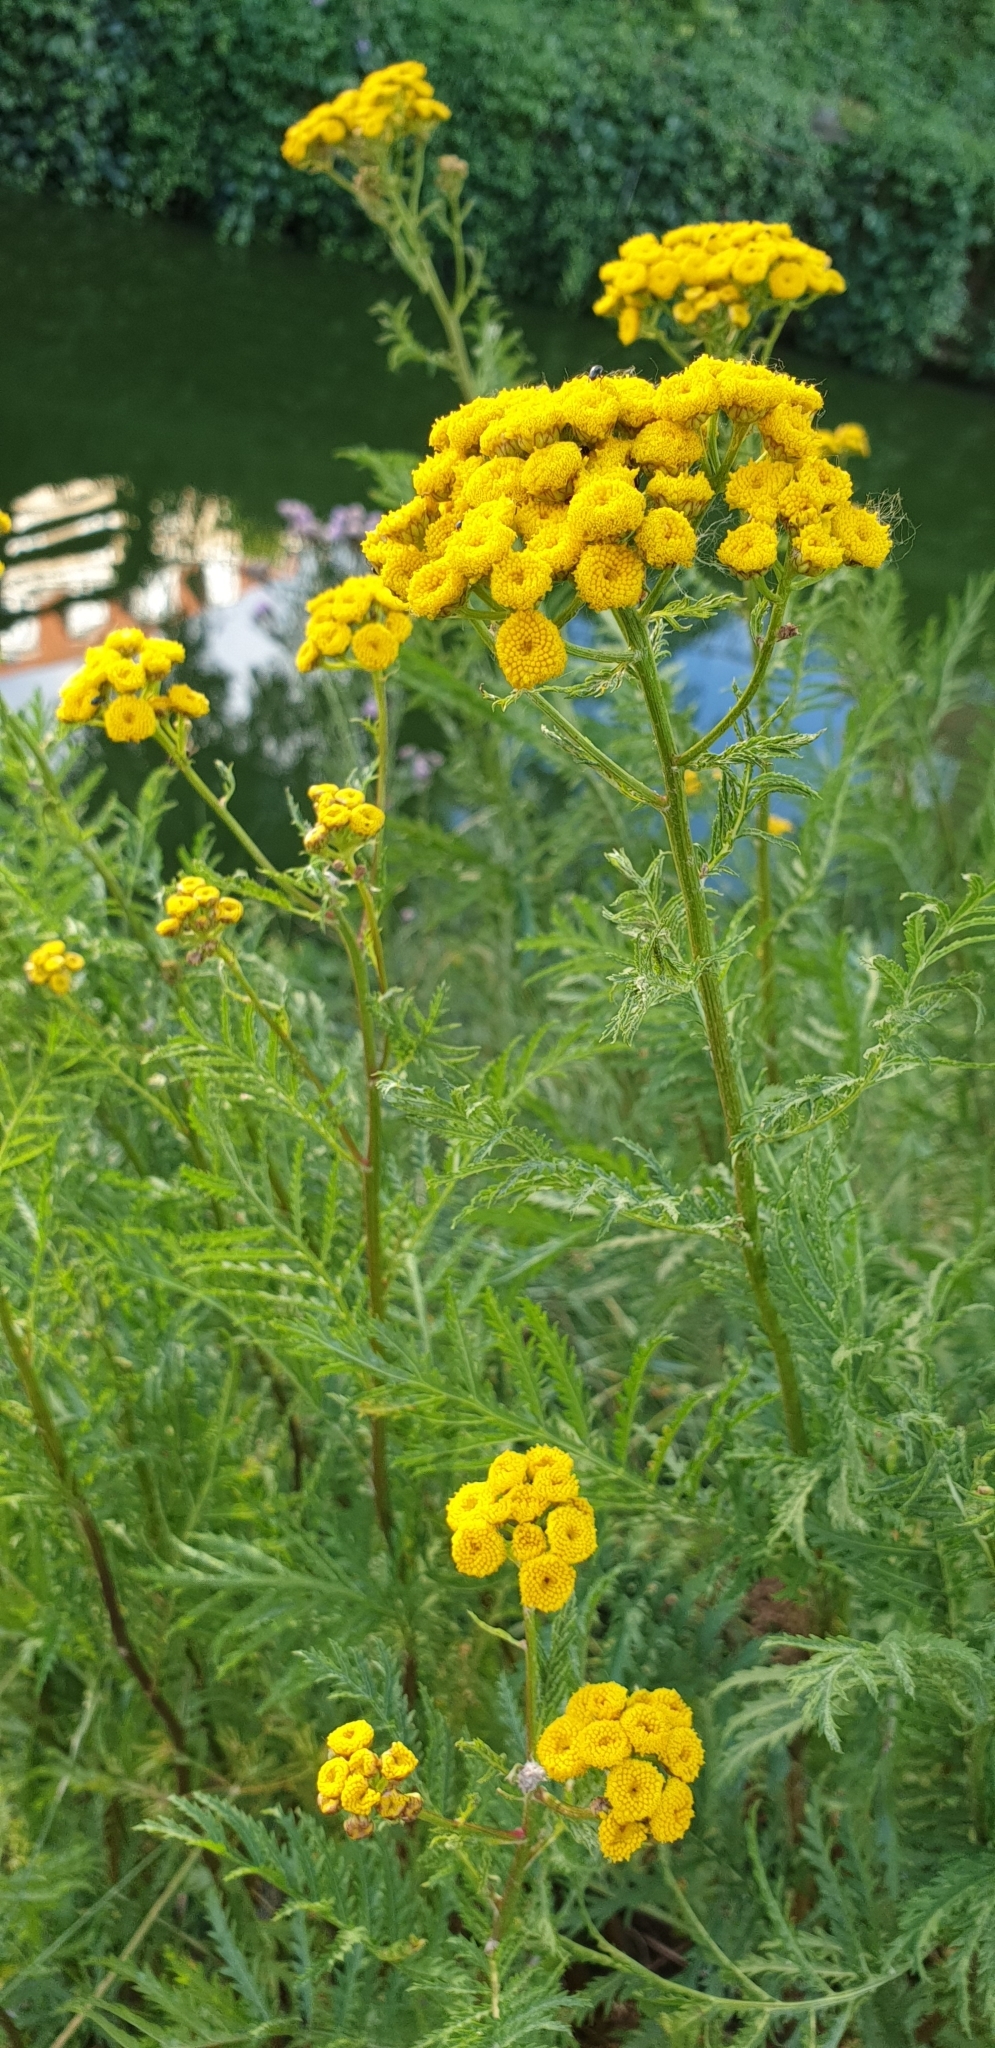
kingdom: Plantae
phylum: Tracheophyta
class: Magnoliopsida
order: Asterales
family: Asteraceae
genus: Tanacetum
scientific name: Tanacetum vulgare
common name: Common tansy
